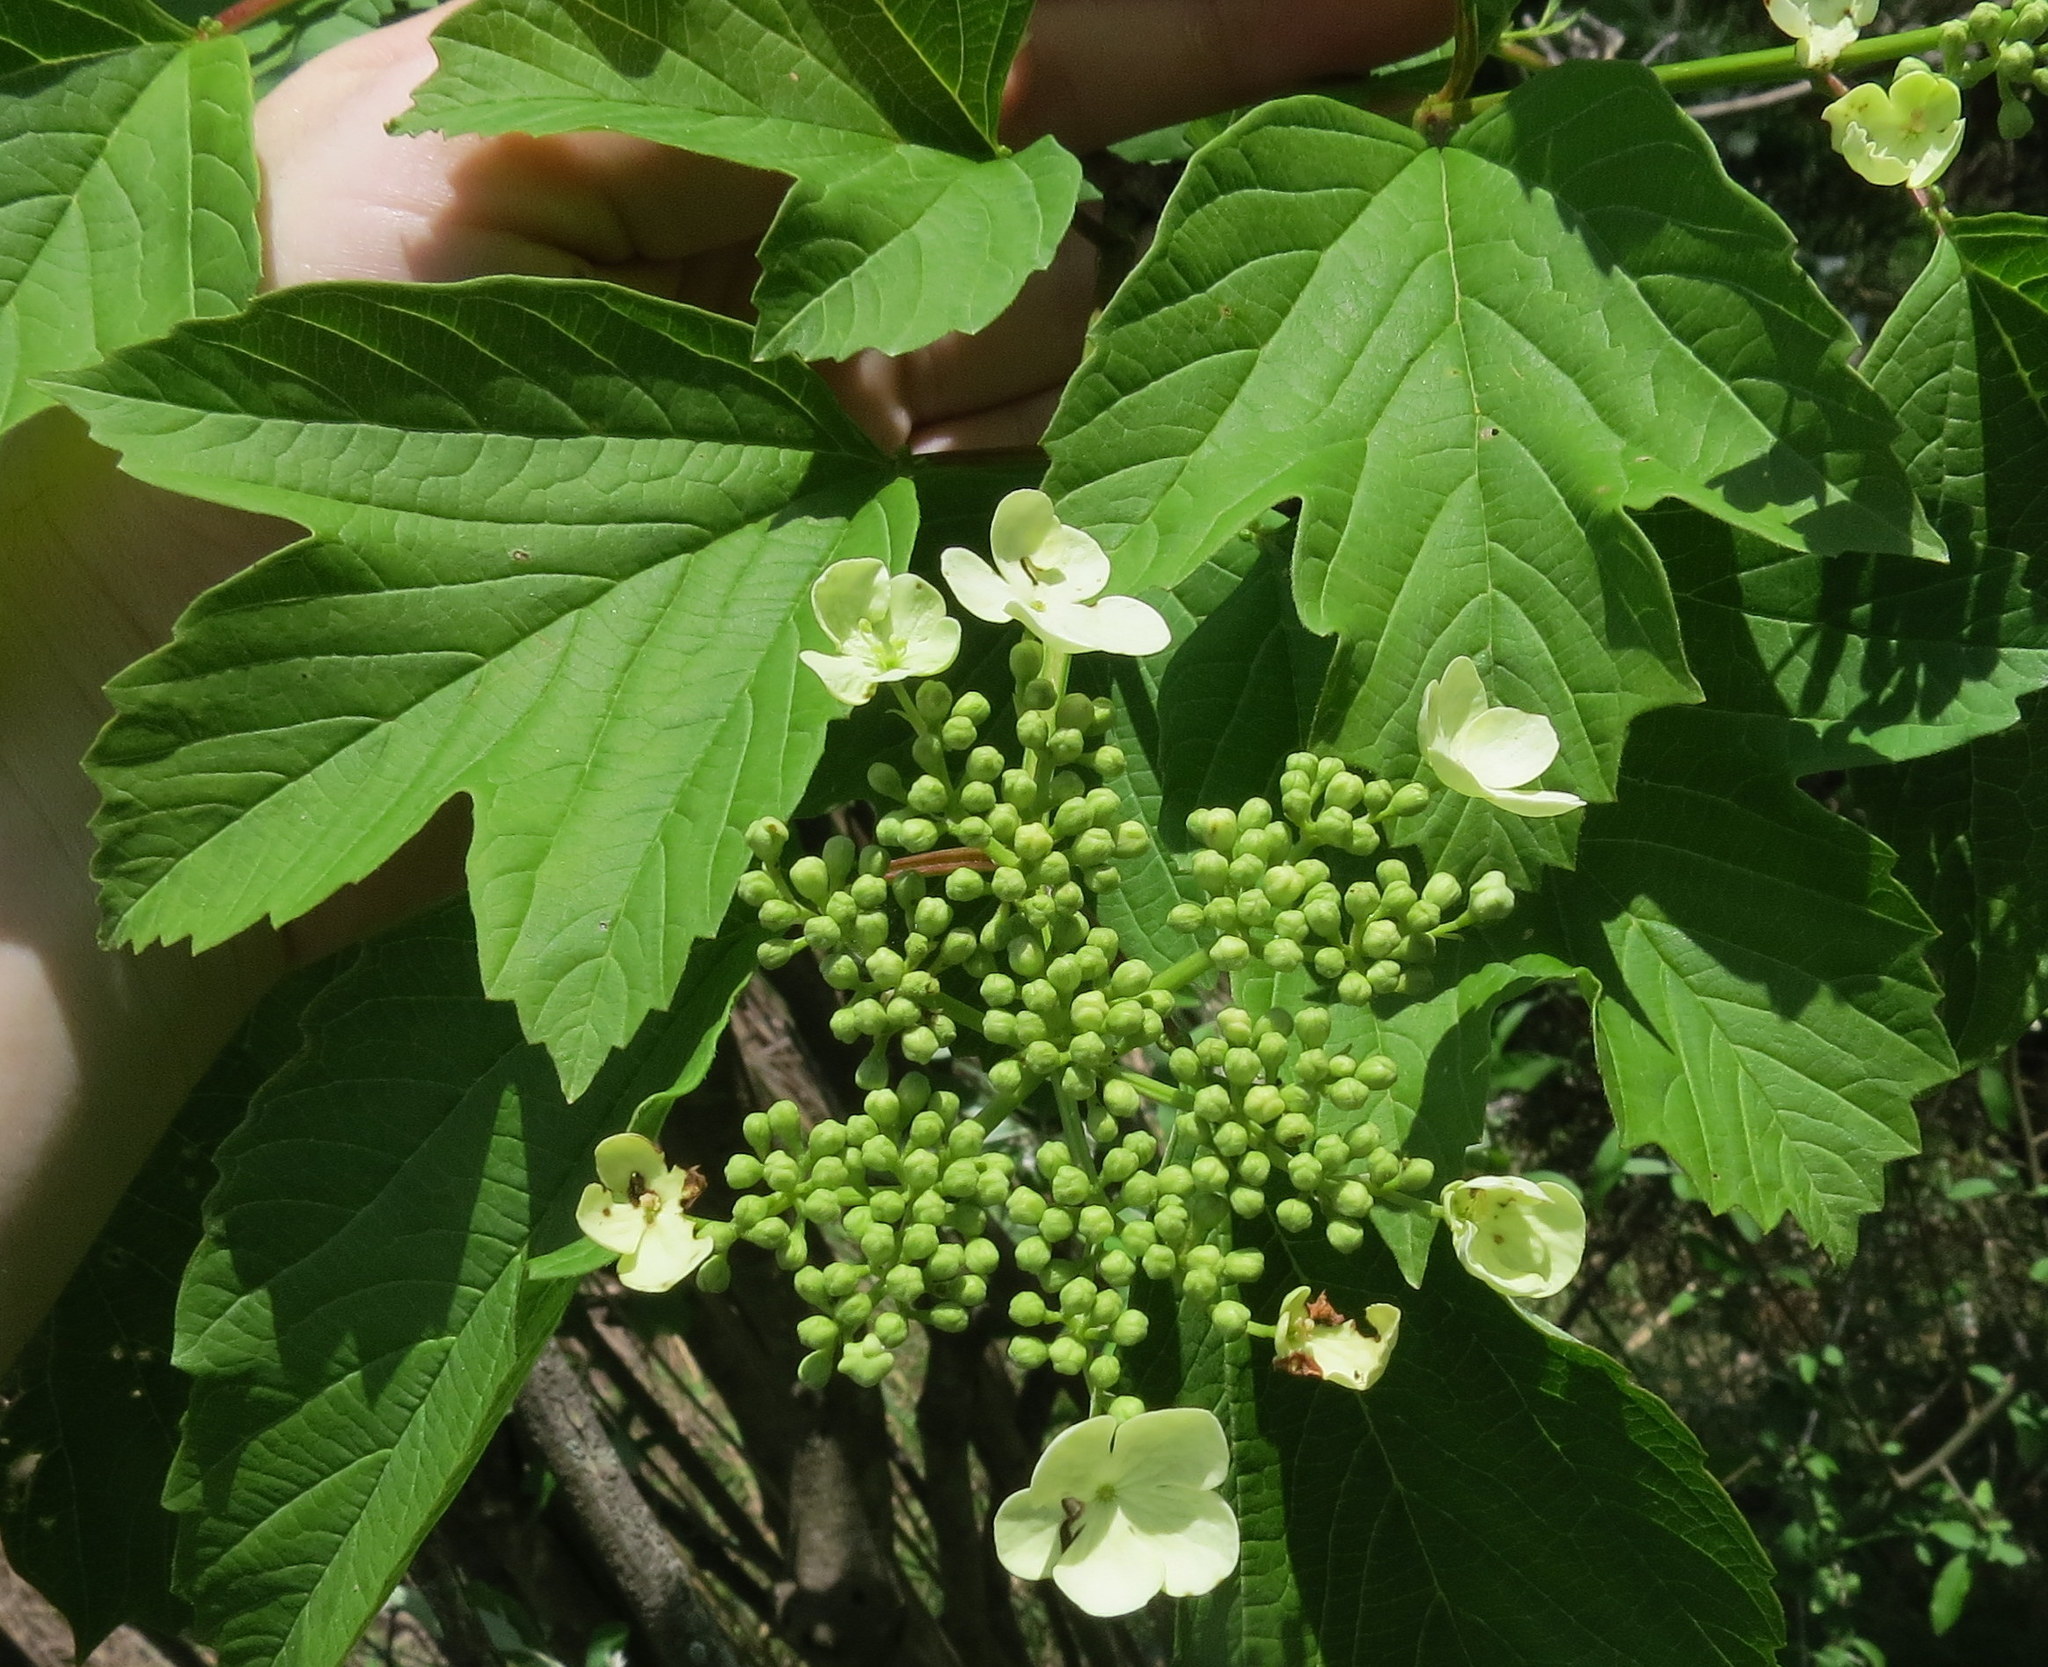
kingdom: Plantae
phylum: Tracheophyta
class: Magnoliopsida
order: Dipsacales
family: Viburnaceae
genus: Viburnum
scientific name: Viburnum opulus
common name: Guelder-rose
